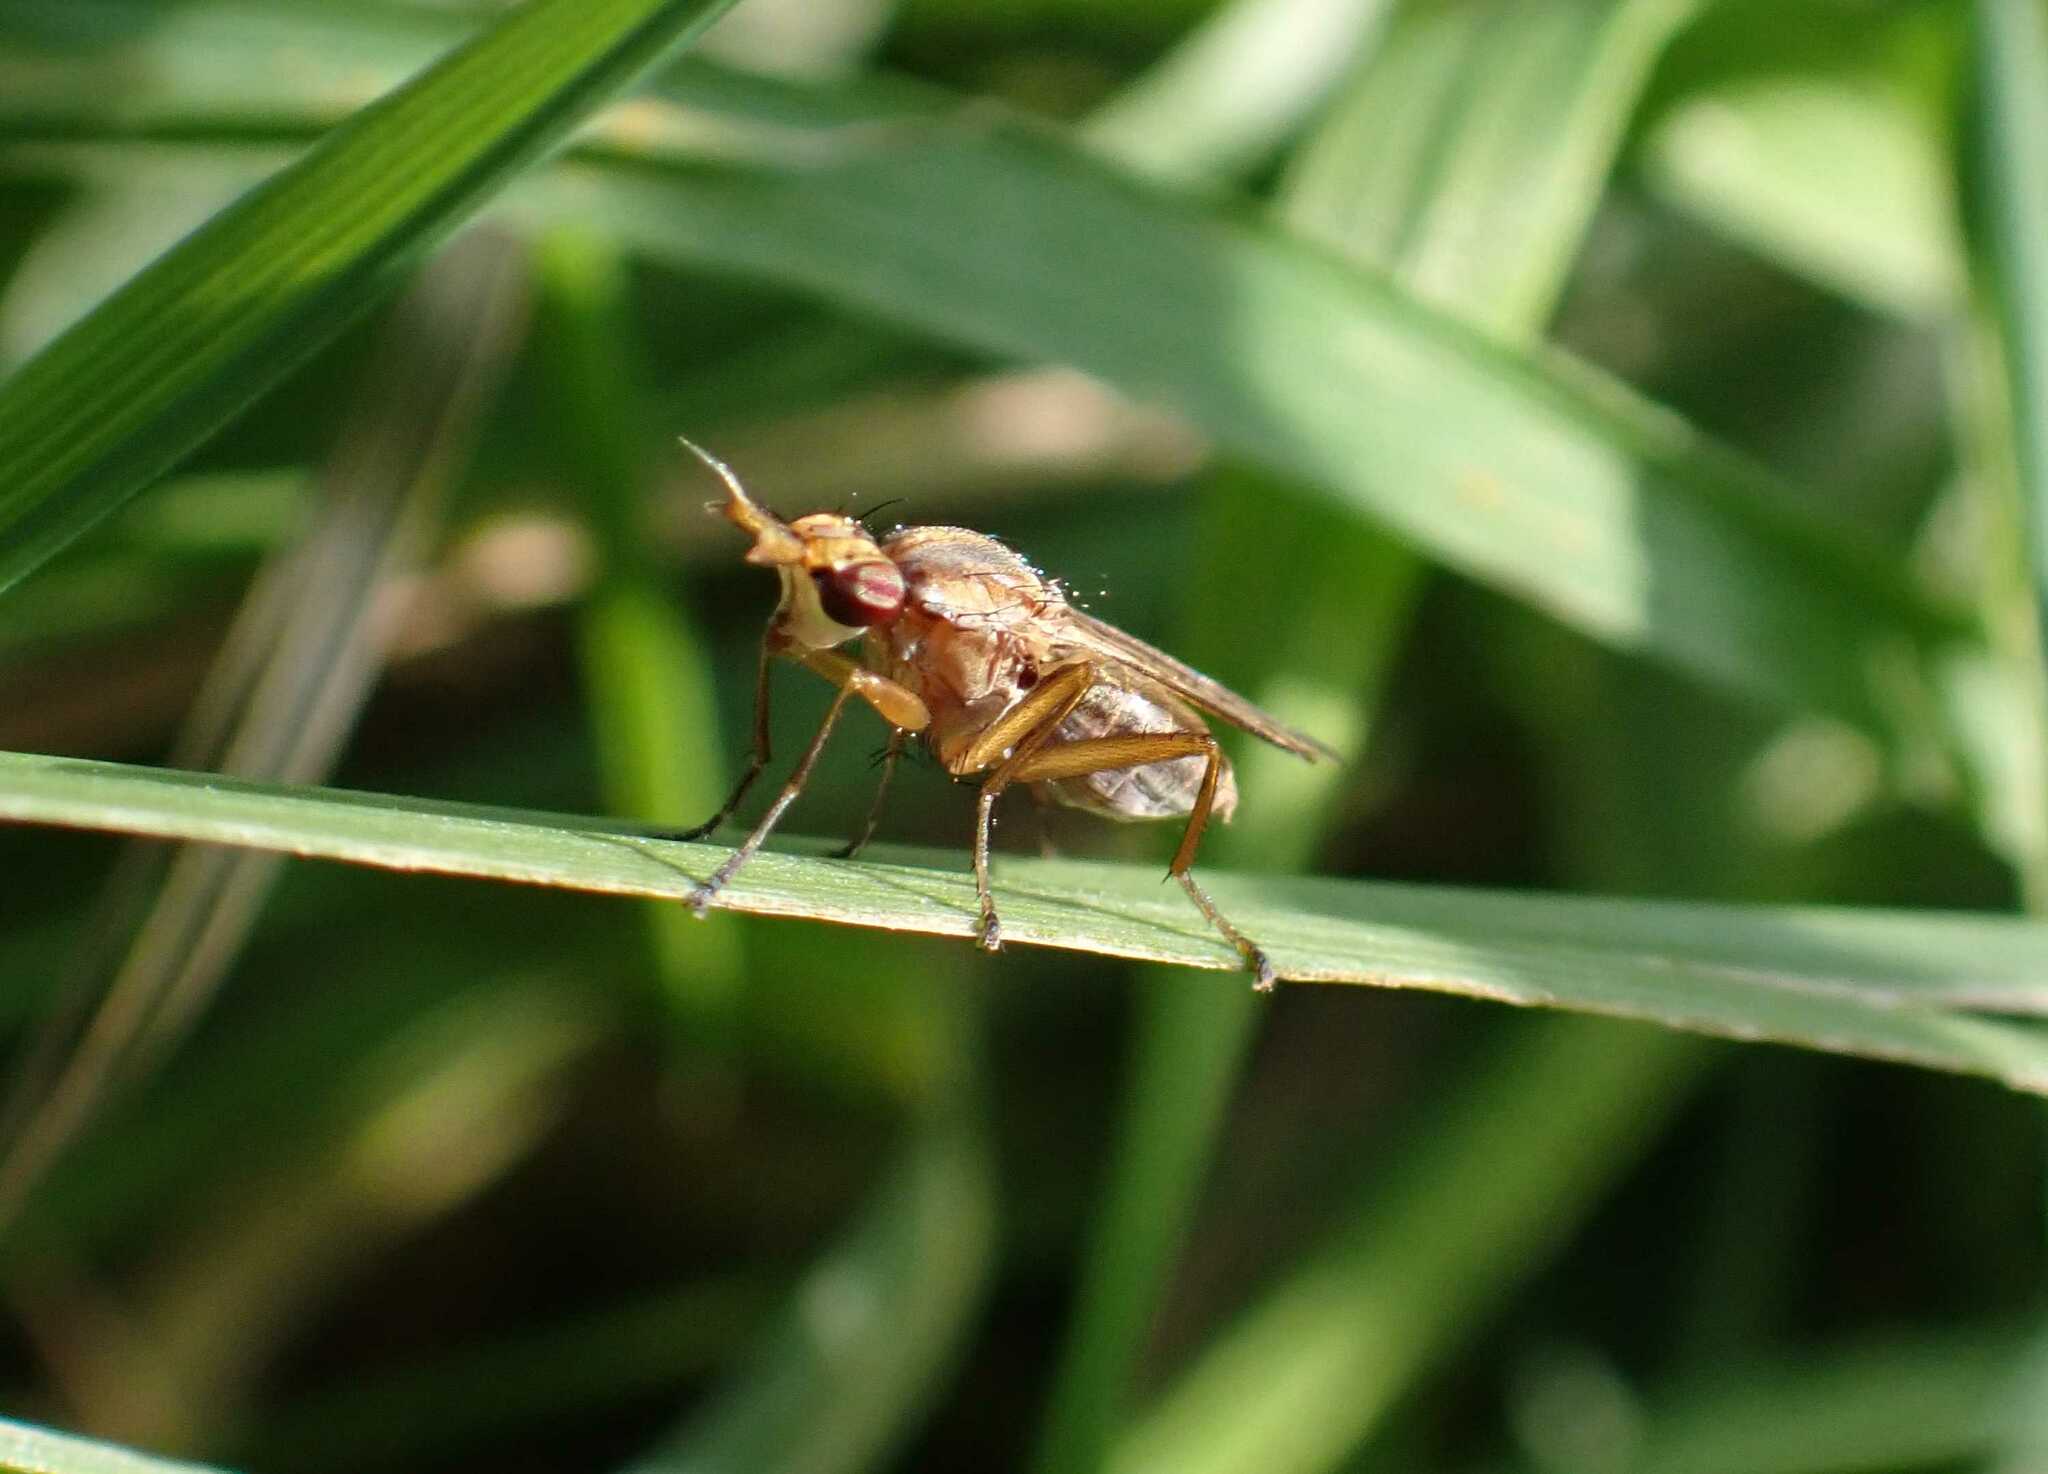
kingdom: Animalia
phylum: Arthropoda
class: Insecta
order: Diptera
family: Sciomyzidae
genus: Limnia
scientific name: Limnia unguicornis
